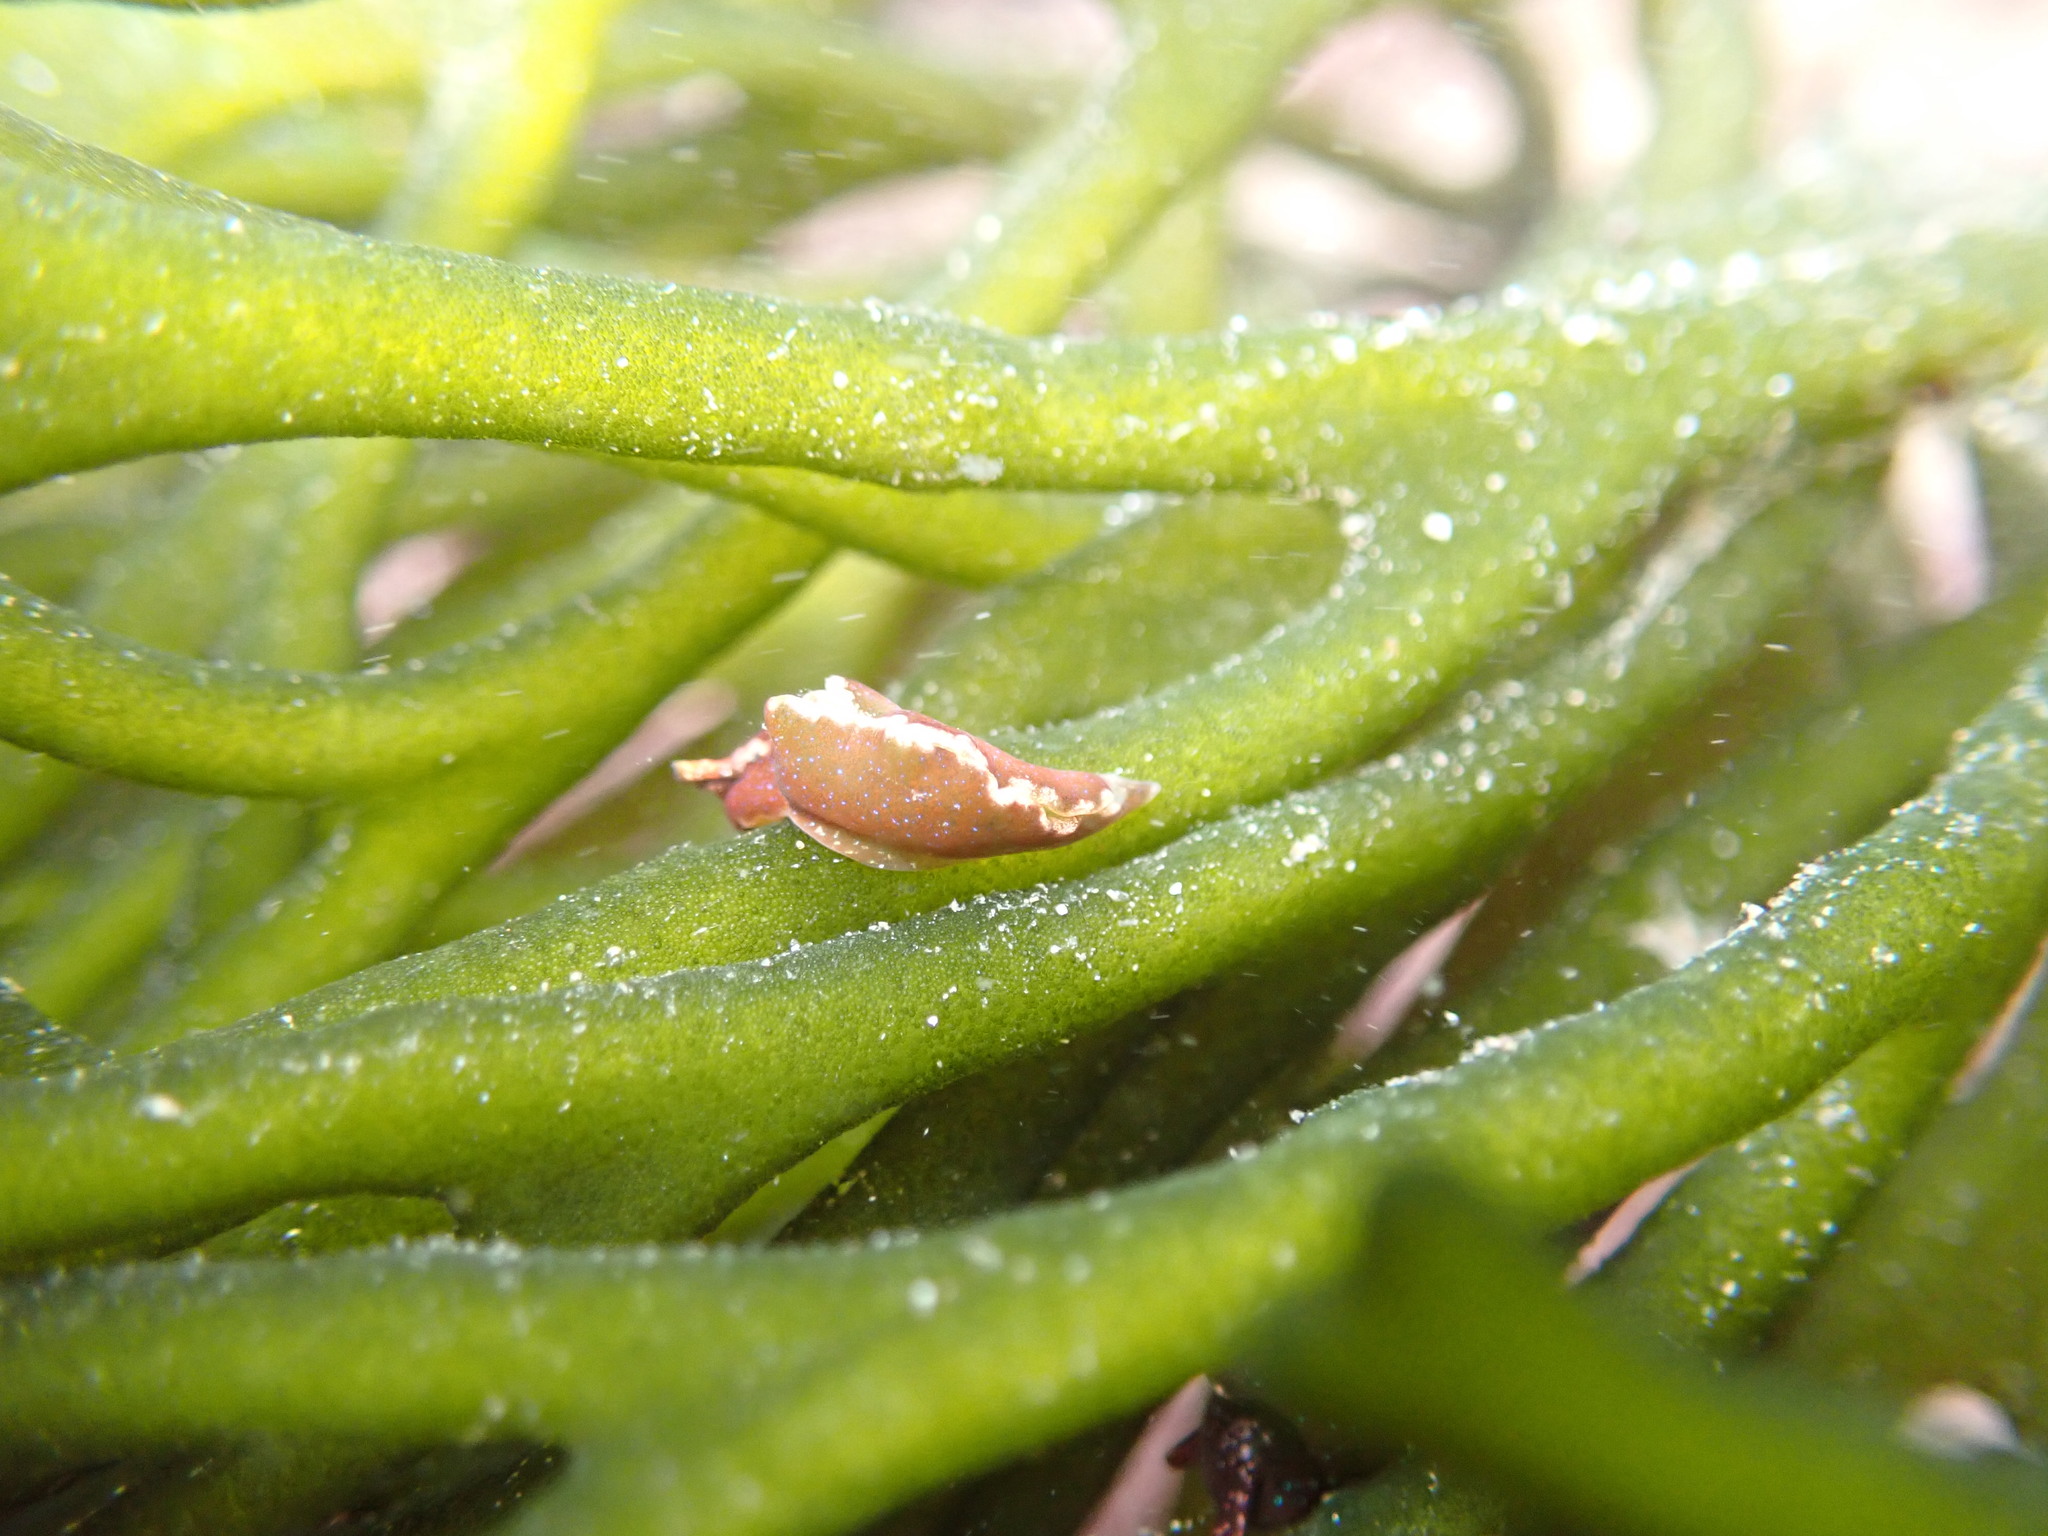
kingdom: Animalia
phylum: Mollusca
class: Gastropoda
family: Plakobranchidae
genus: Elysia
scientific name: Elysia viridis
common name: Green elysia
